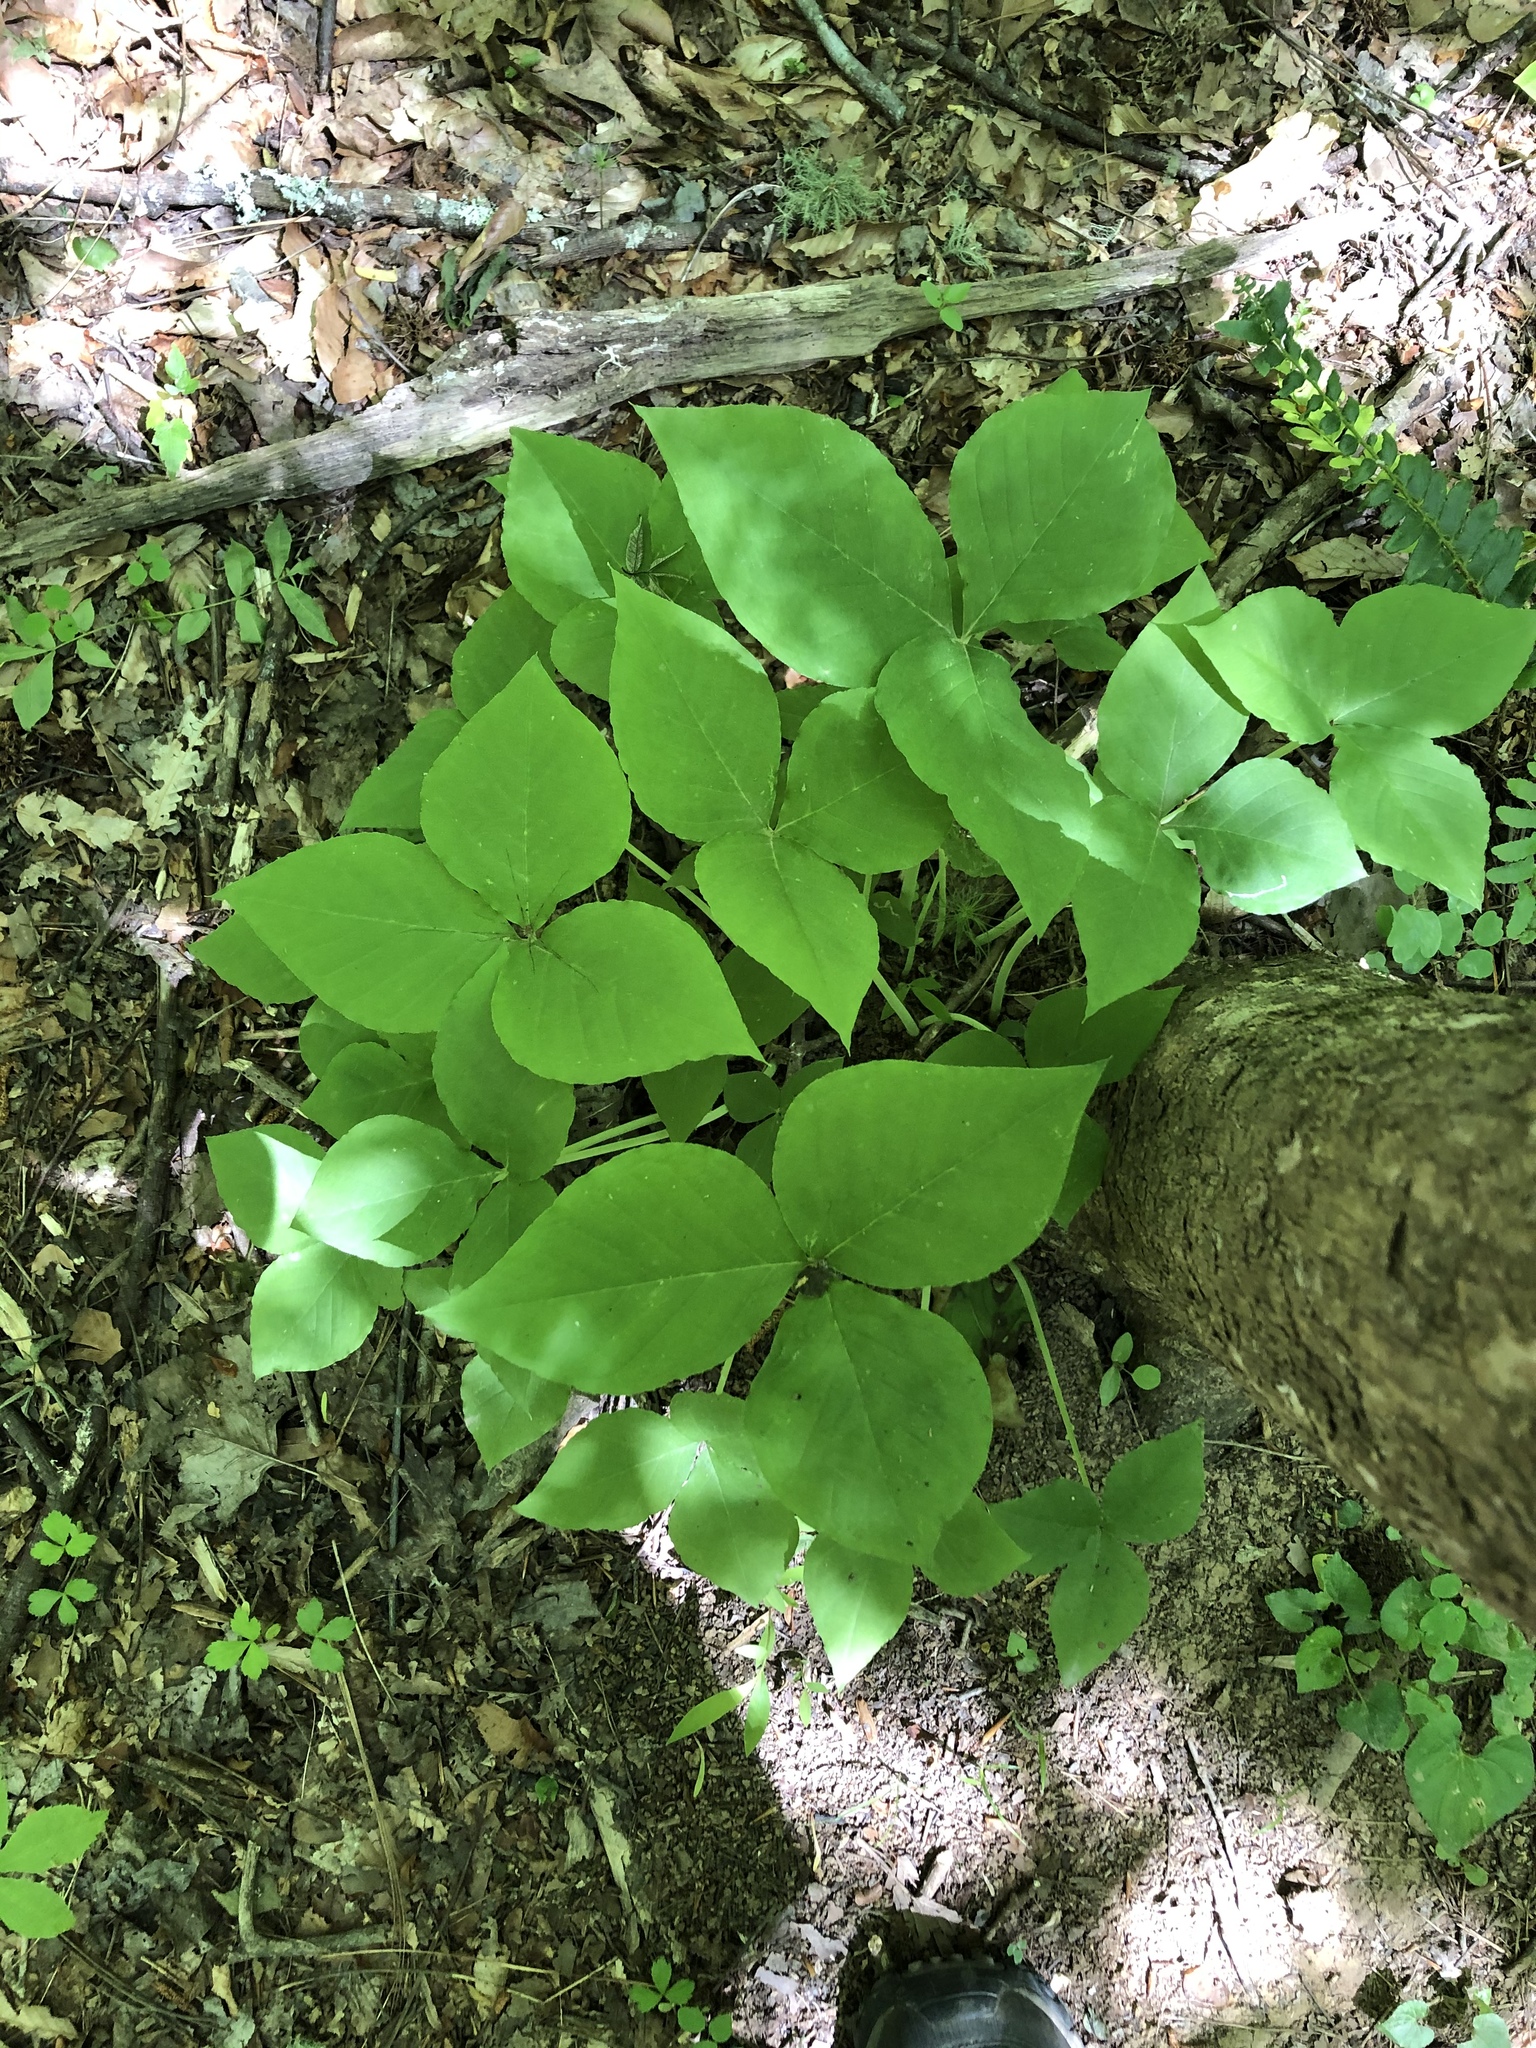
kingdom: Plantae
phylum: Tracheophyta
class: Liliopsida
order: Alismatales
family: Araceae
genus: Arisaema
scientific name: Arisaema triphyllum
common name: Jack-in-the-pulpit
